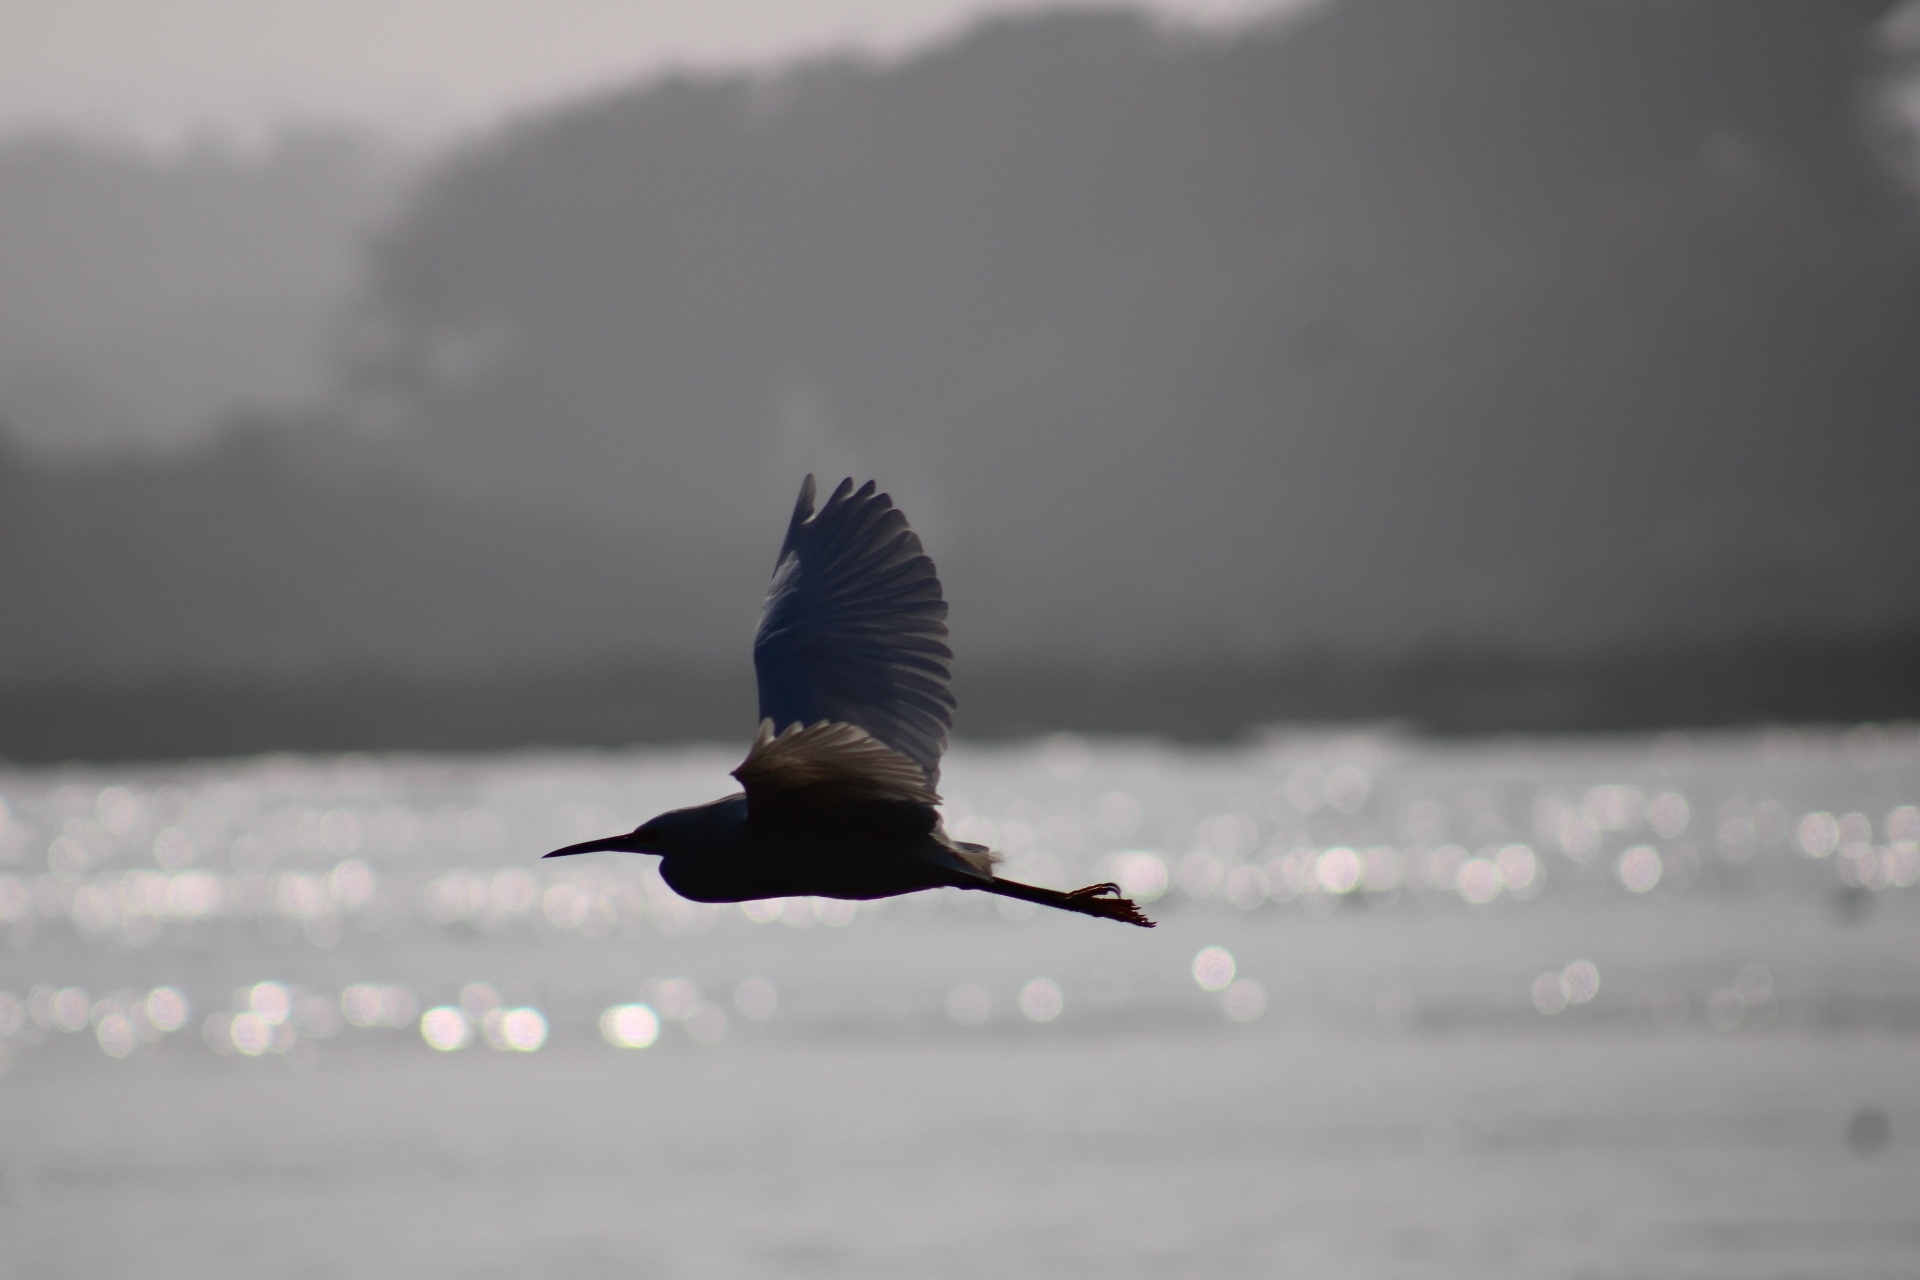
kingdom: Animalia
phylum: Chordata
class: Aves
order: Pelecaniformes
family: Ardeidae
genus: Egretta
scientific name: Egretta thula
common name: Snowy egret
